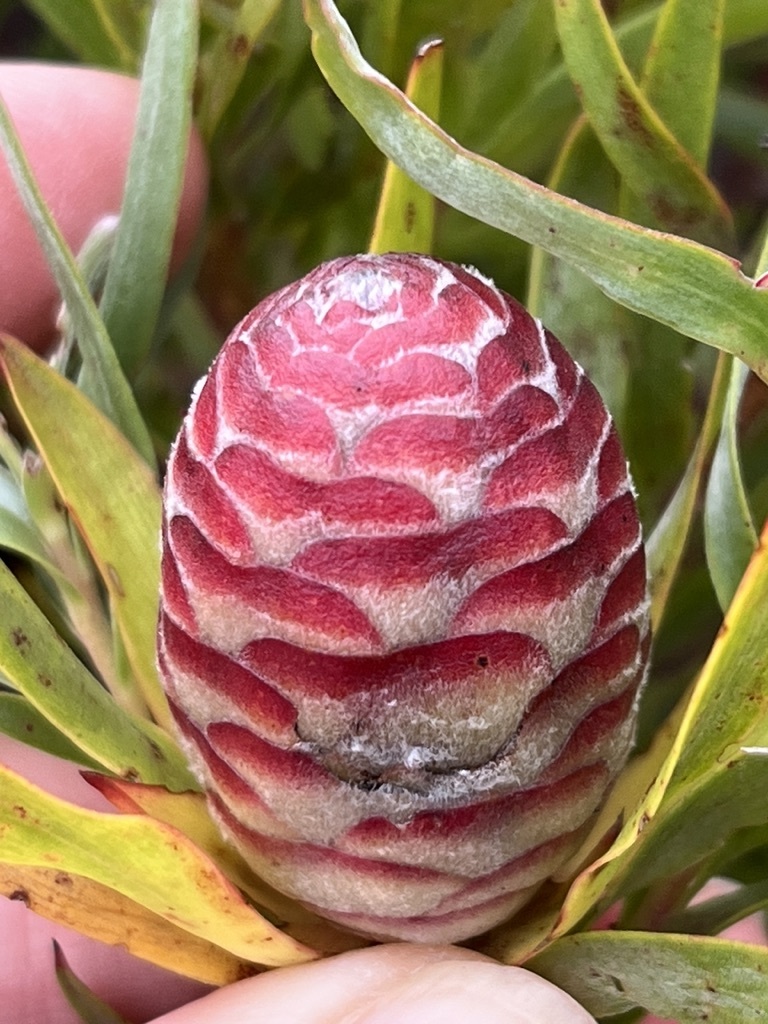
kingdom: Plantae
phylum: Tracheophyta
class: Magnoliopsida
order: Proteales
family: Proteaceae
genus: Leucadendron
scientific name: Leucadendron xanthoconus
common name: Sickle-leaf conebush
